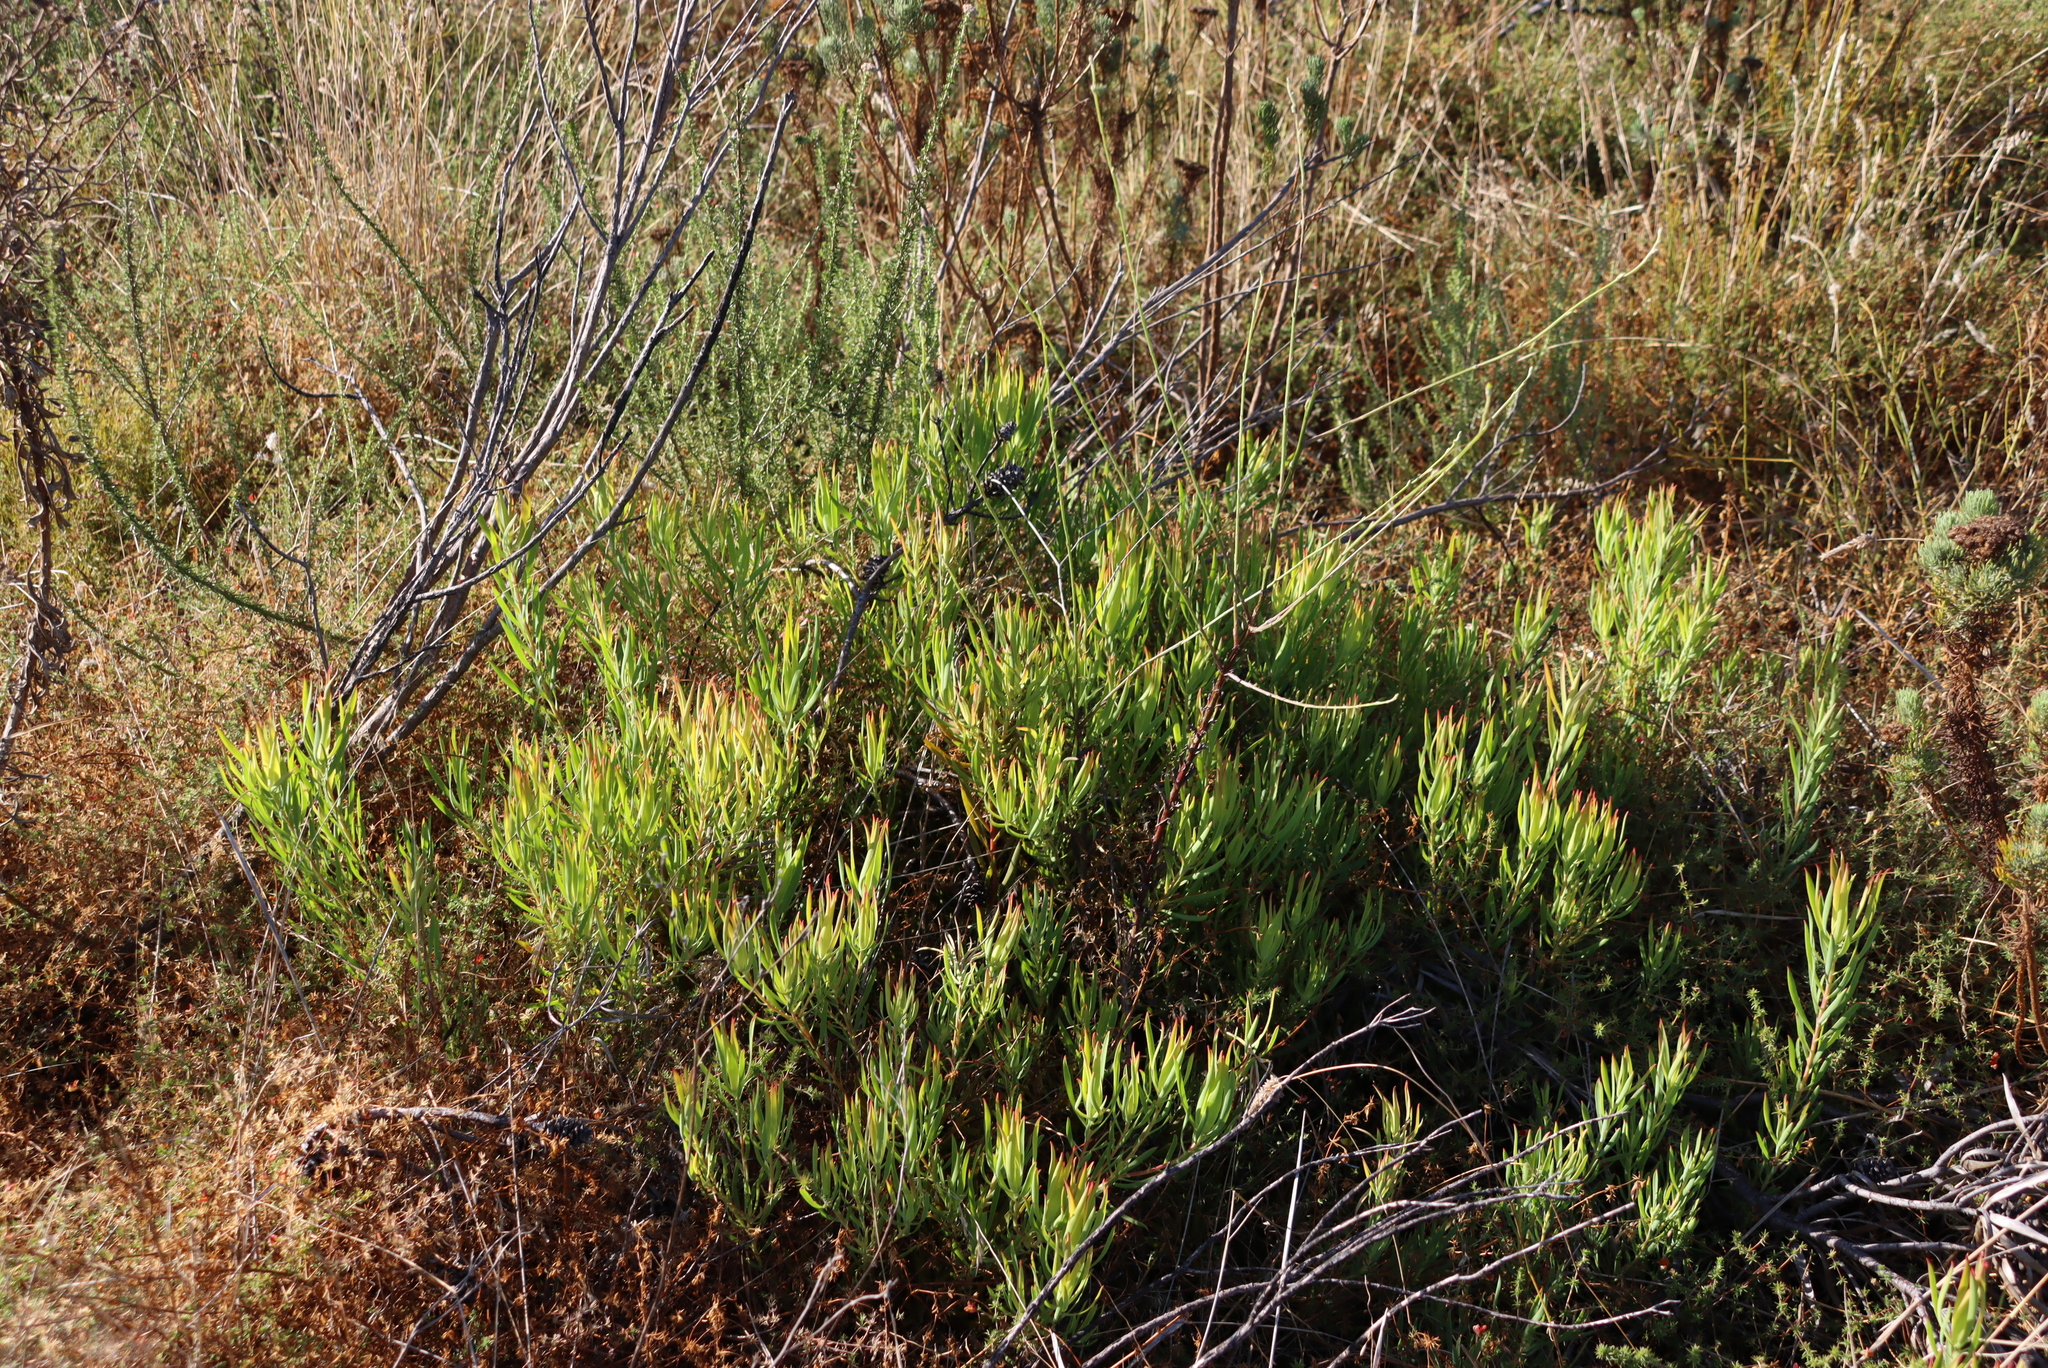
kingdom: Plantae
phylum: Tracheophyta
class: Magnoliopsida
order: Proteales
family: Proteaceae
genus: Leucadendron
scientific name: Leucadendron salignum
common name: Common sunshine conebush
